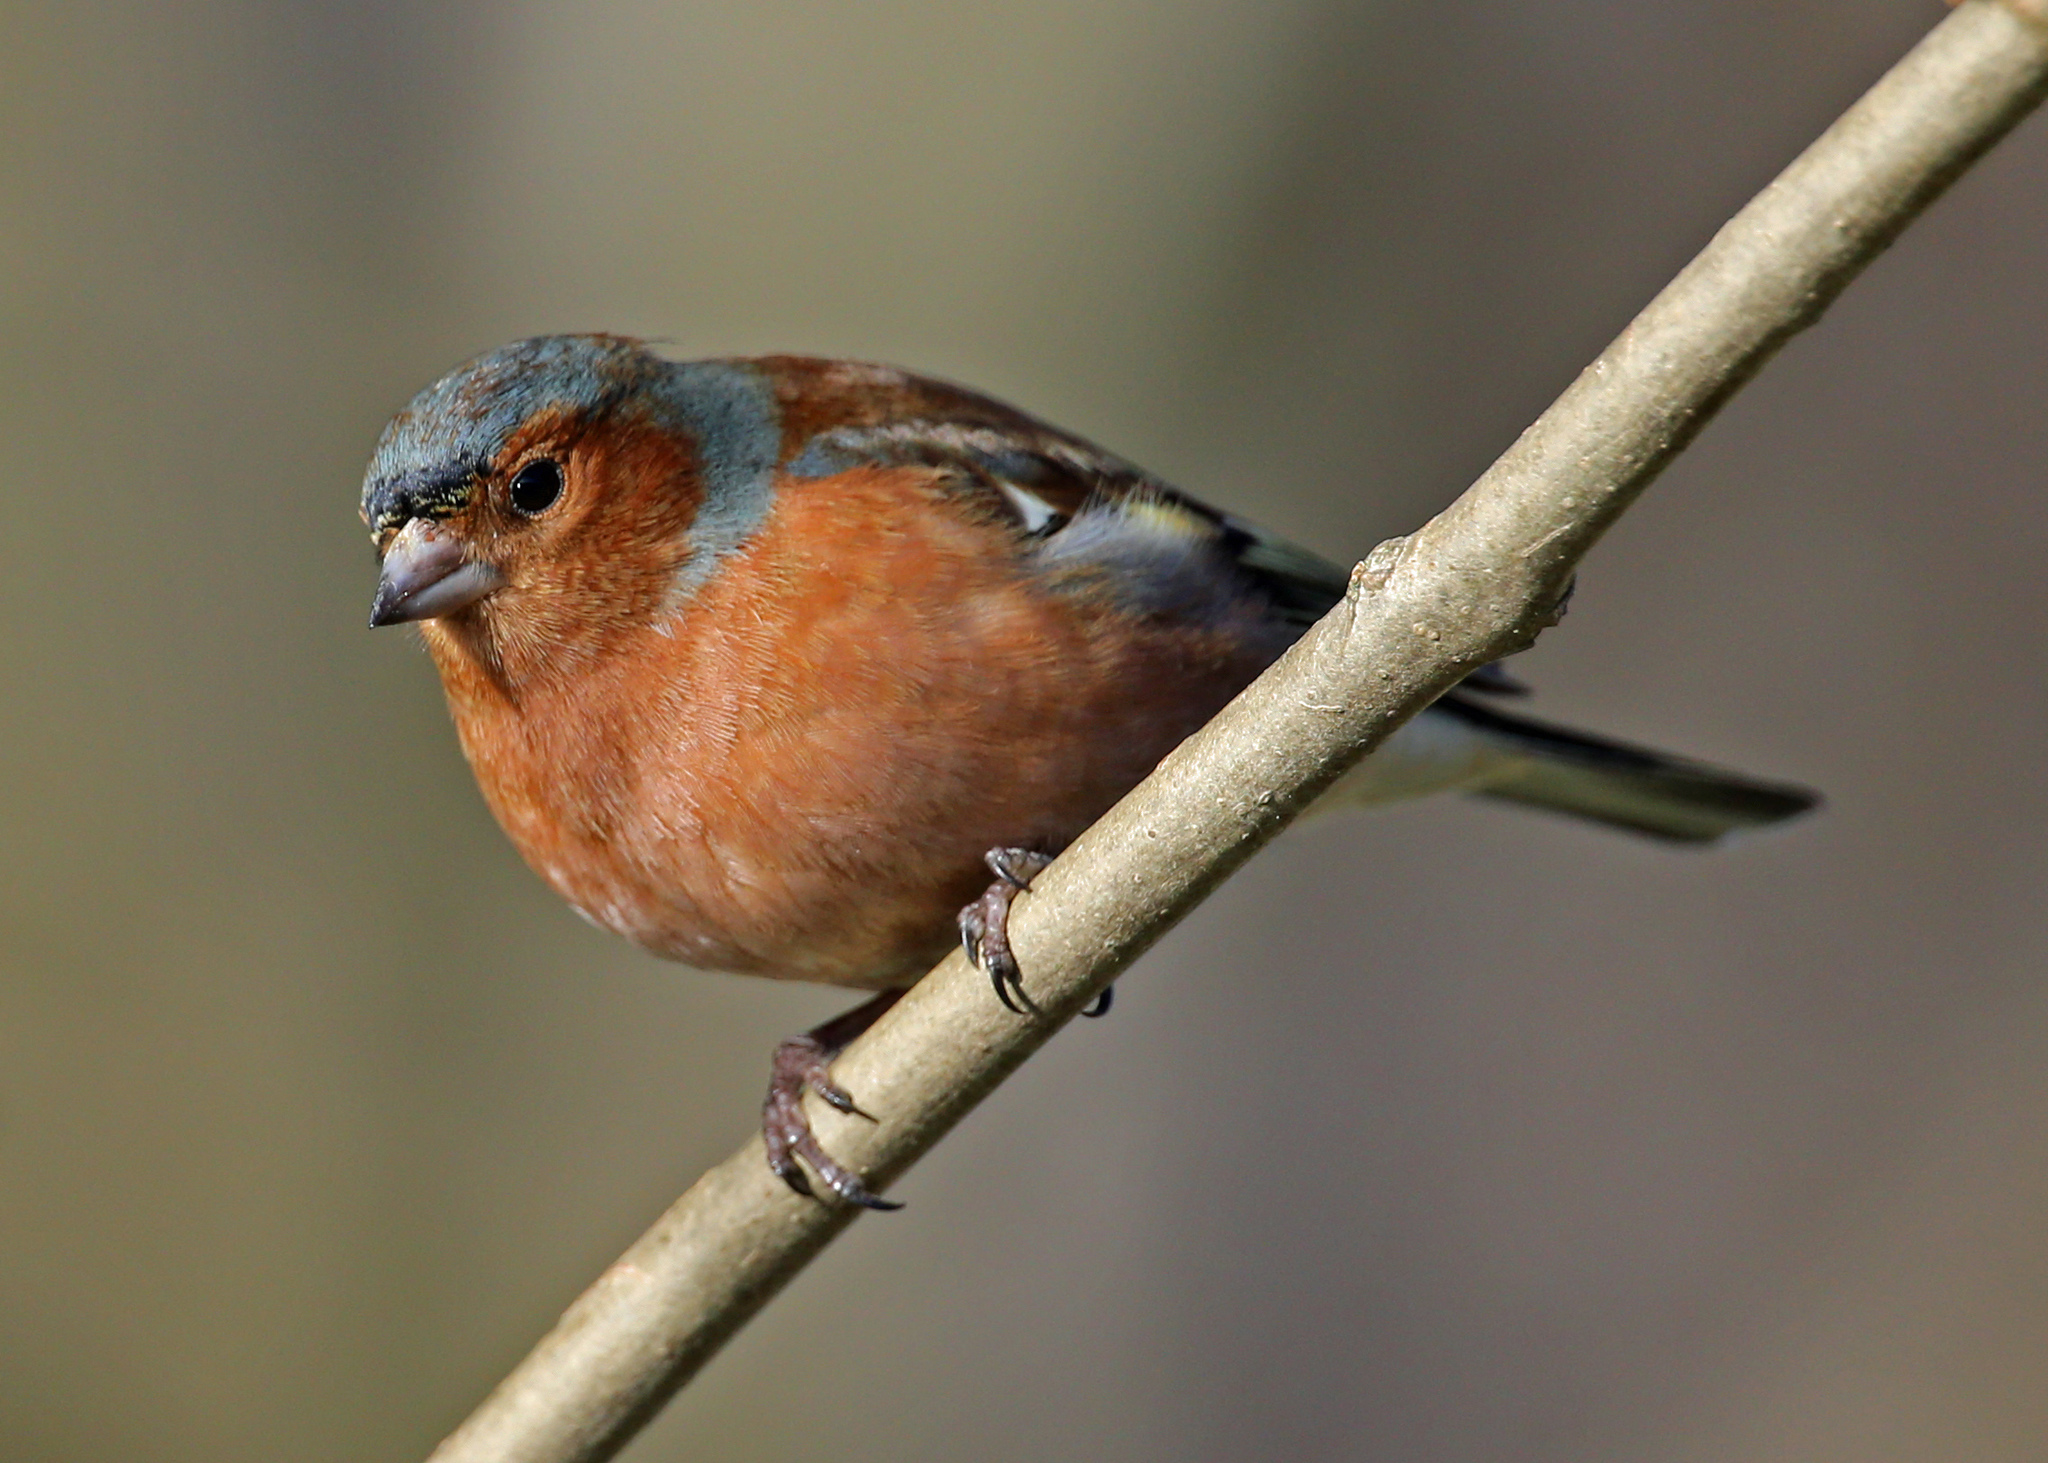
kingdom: Animalia
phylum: Chordata
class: Aves
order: Passeriformes
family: Fringillidae
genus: Fringilla
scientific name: Fringilla coelebs
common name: Common chaffinch
